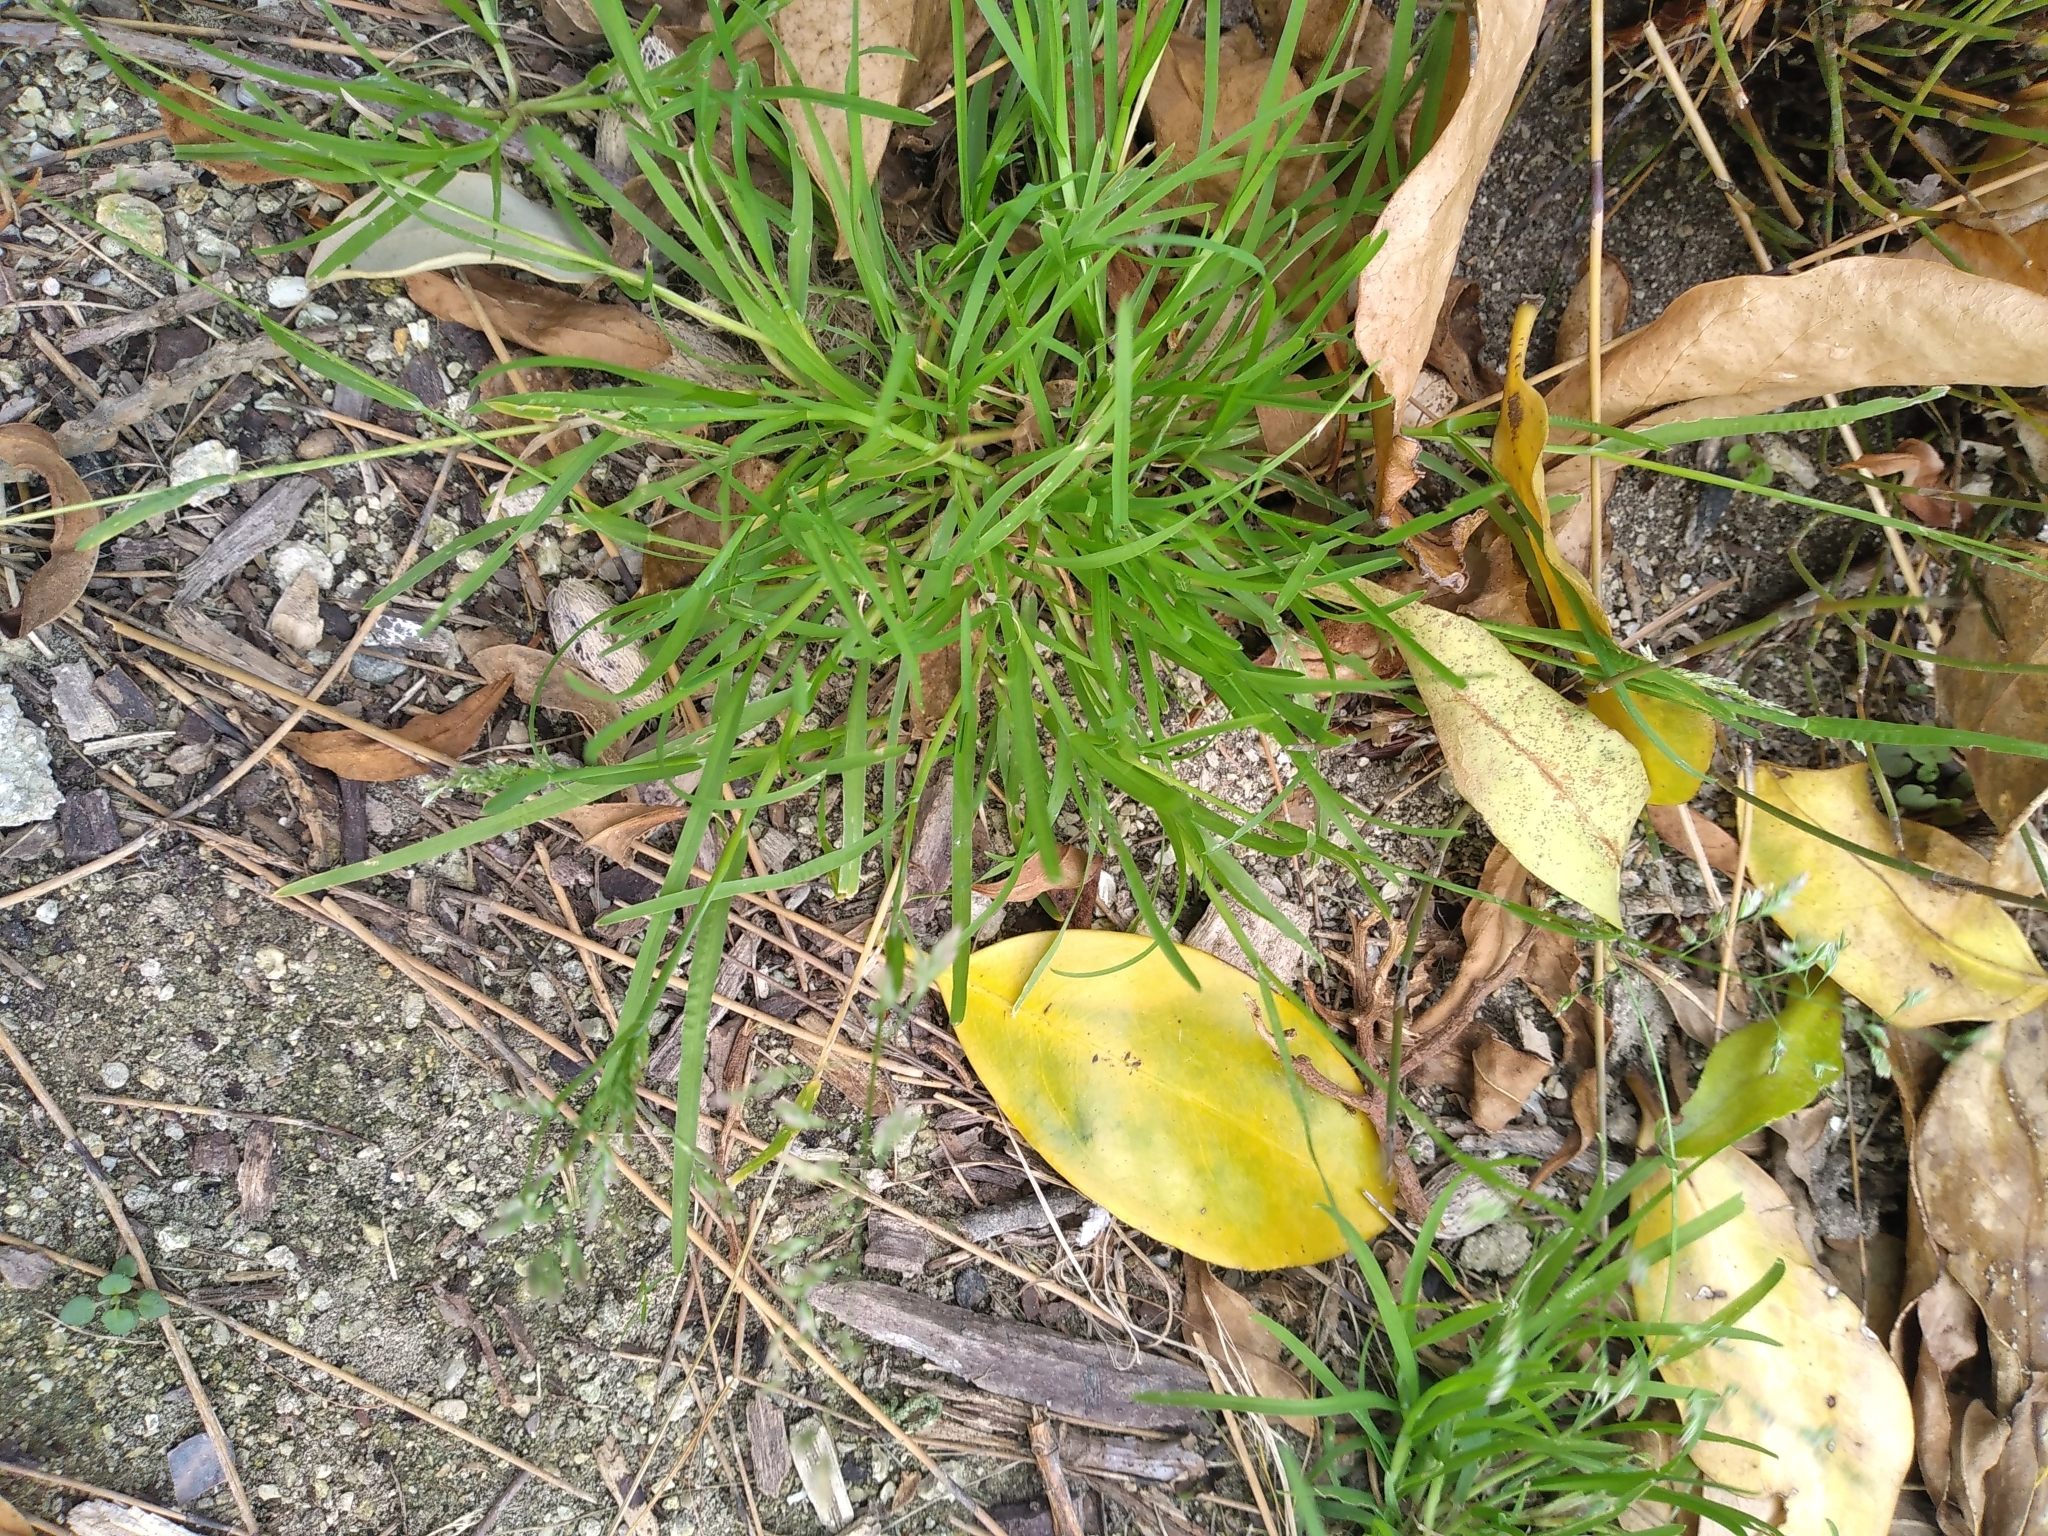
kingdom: Plantae
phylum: Tracheophyta
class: Liliopsida
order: Poales
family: Poaceae
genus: Poa
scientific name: Poa annua
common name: Annual bluegrass
